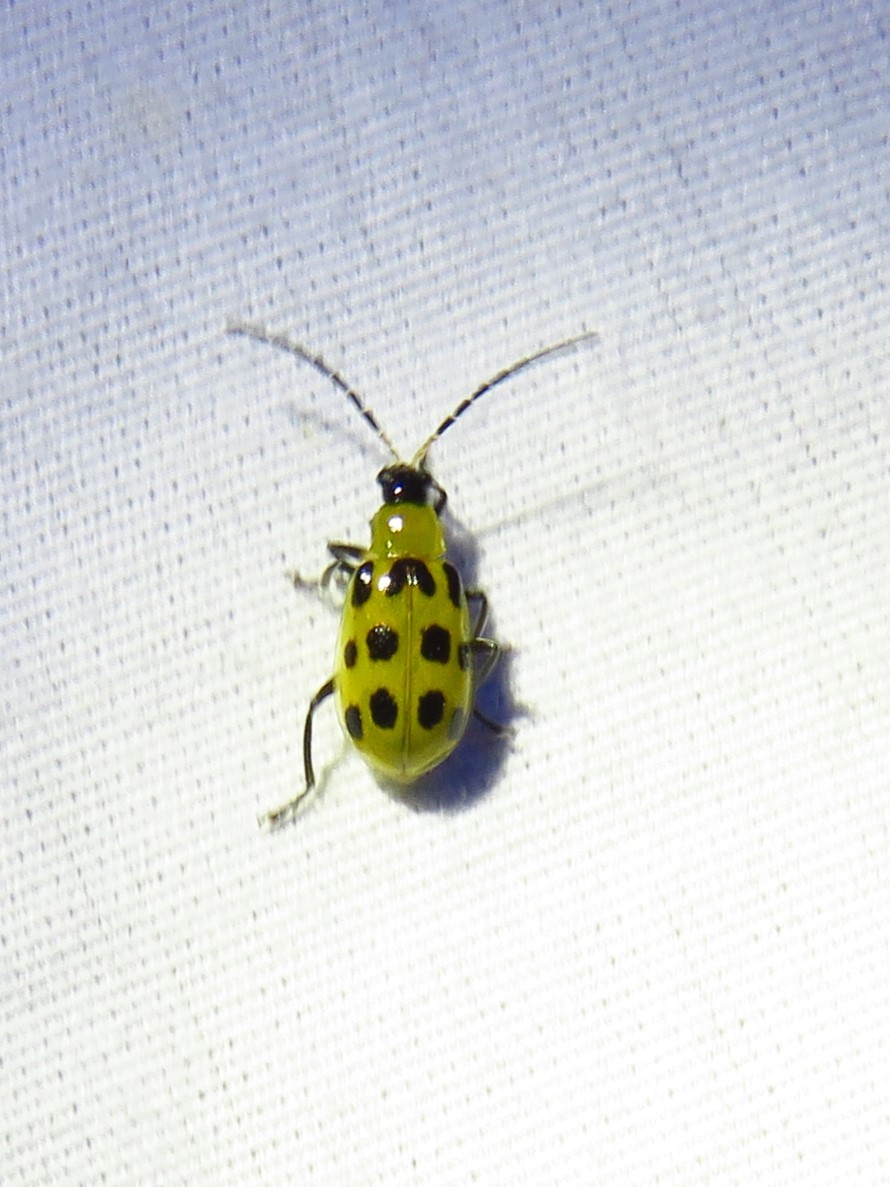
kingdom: Animalia
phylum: Arthropoda
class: Insecta
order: Coleoptera
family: Chrysomelidae
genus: Diabrotica
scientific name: Diabrotica undecimpunctata
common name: Spotted cucumber beetle
